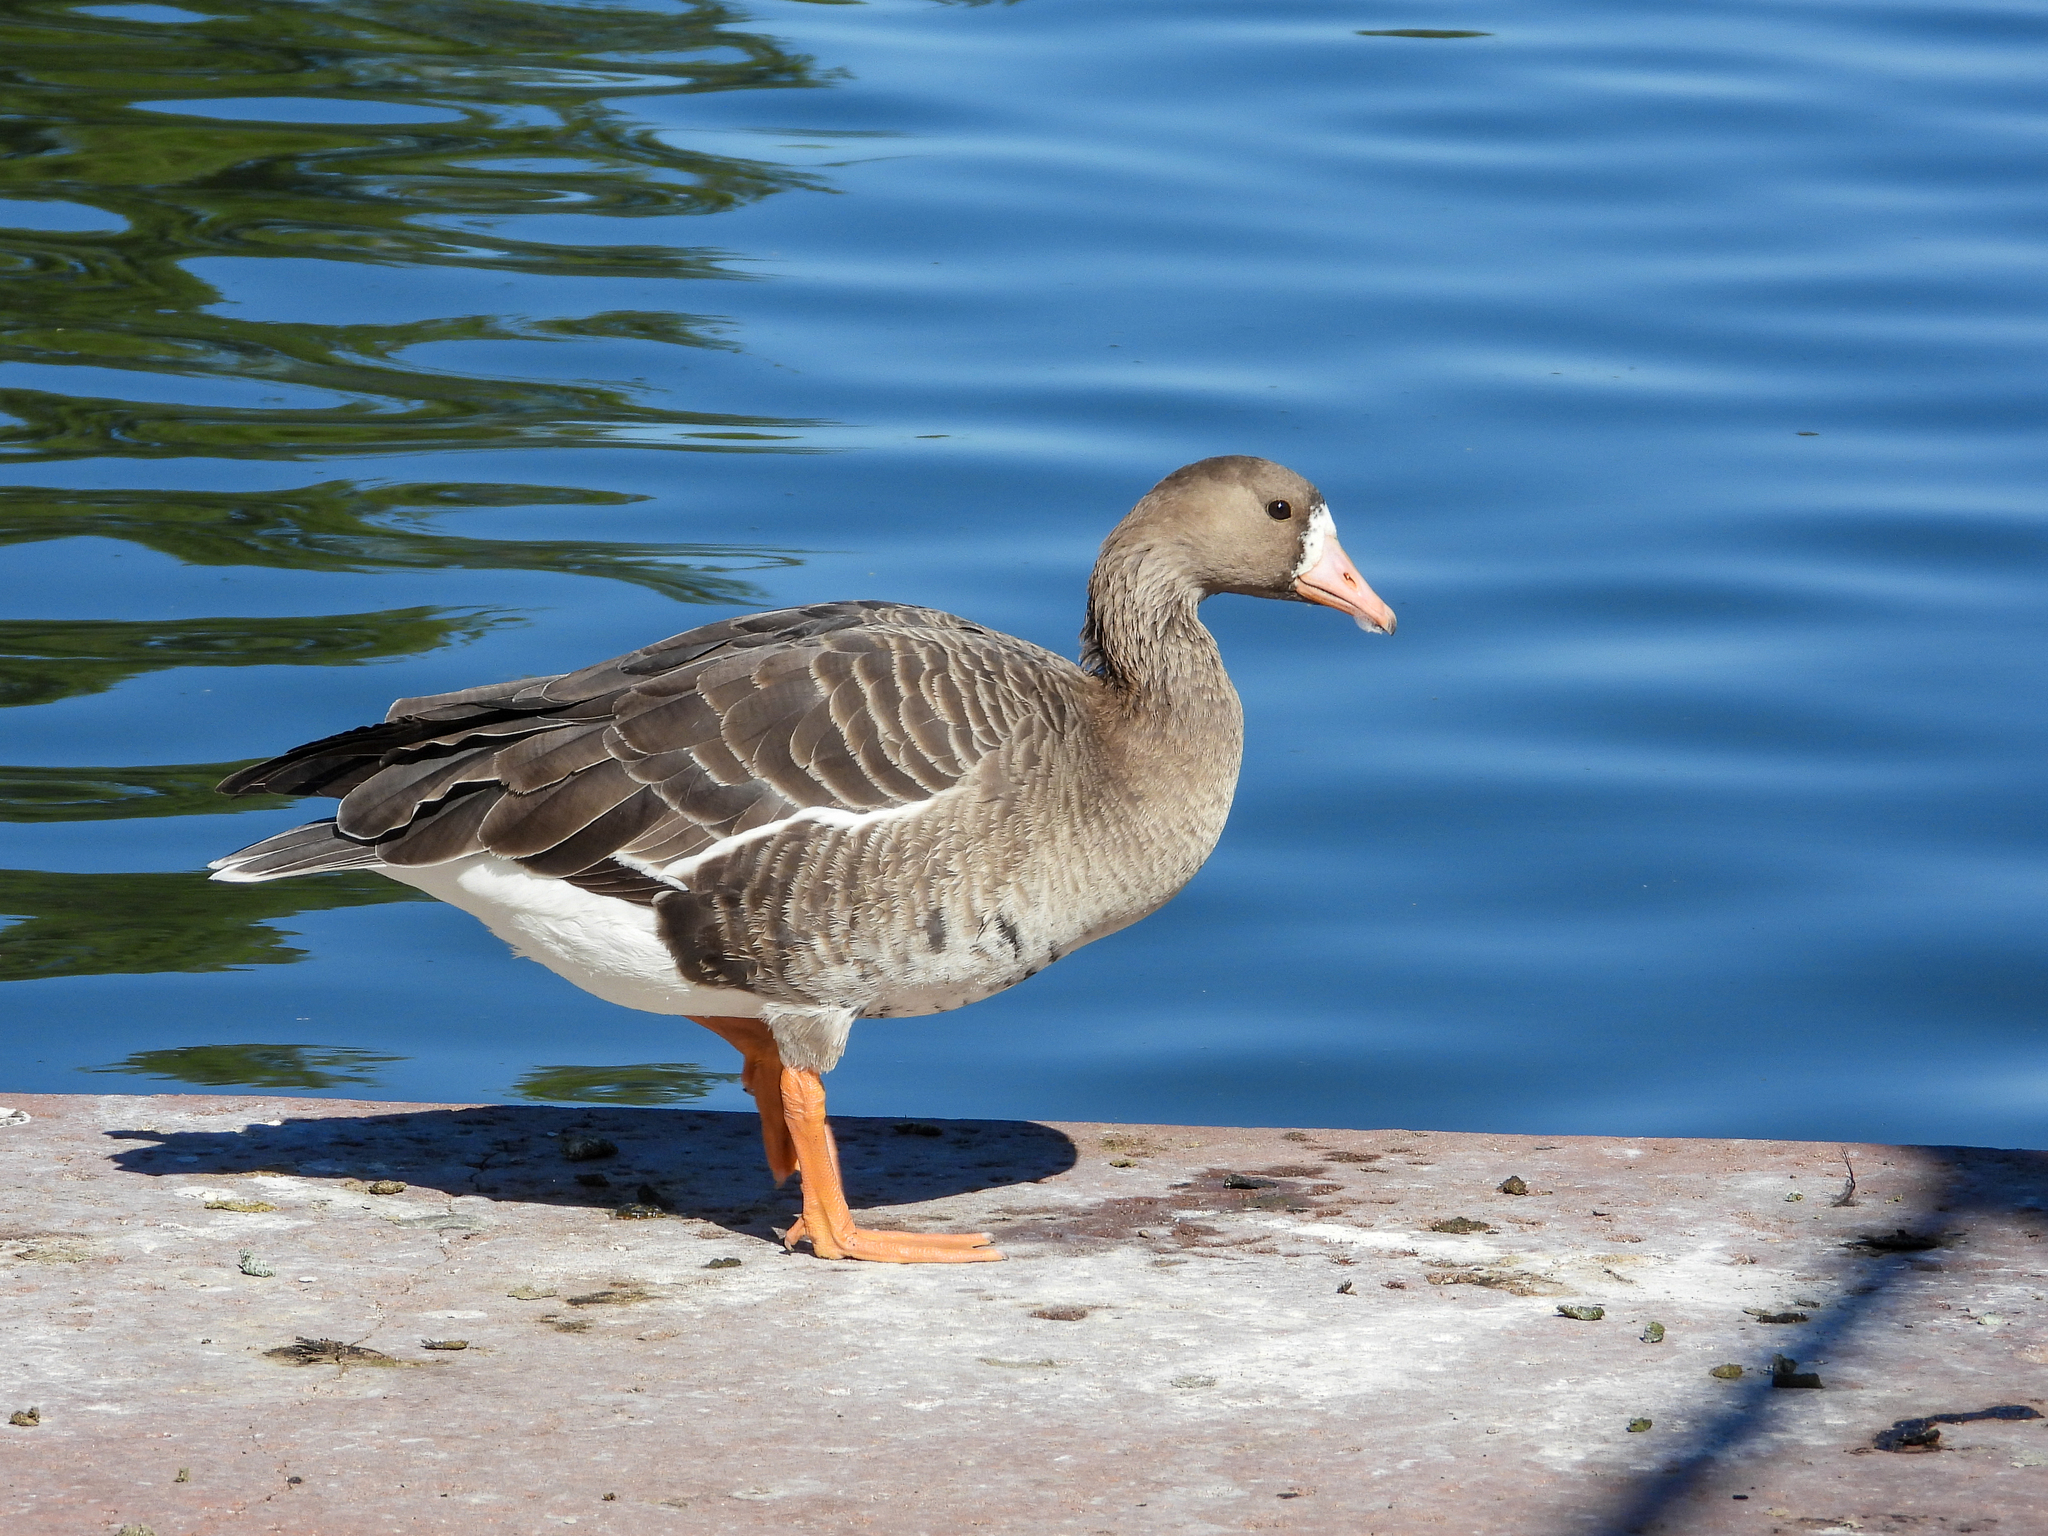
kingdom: Animalia
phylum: Chordata
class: Aves
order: Anseriformes
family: Anatidae
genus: Anser
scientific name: Anser albifrons
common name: Greater white-fronted goose
